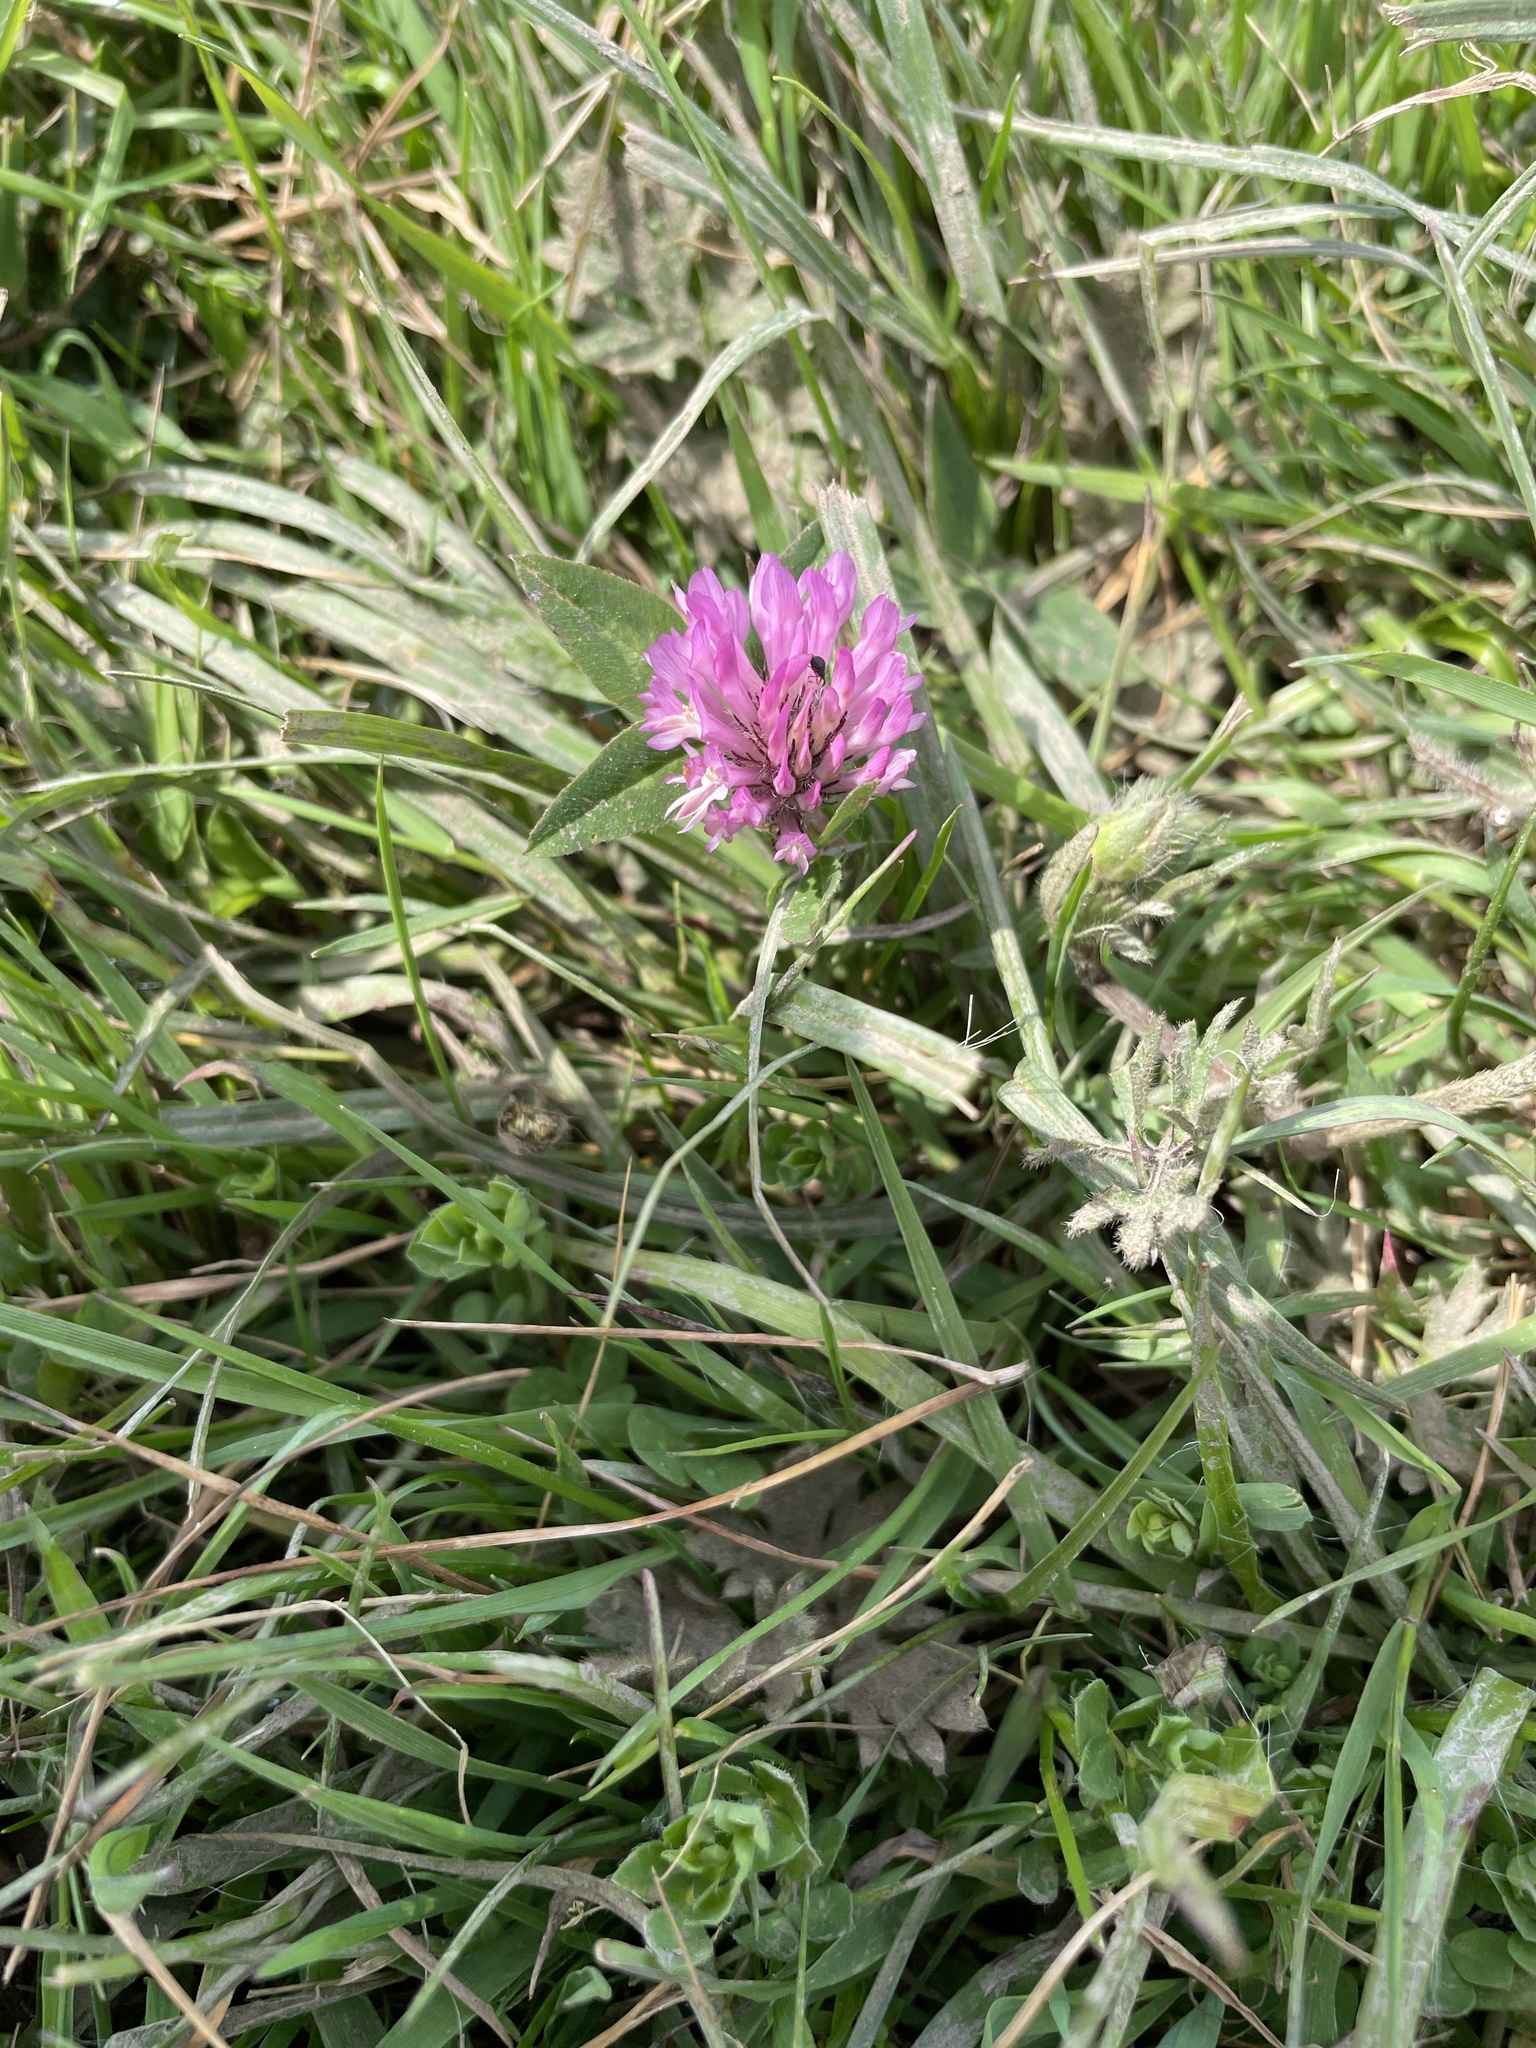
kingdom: Plantae
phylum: Tracheophyta
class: Magnoliopsida
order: Fabales
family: Fabaceae
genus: Trifolium
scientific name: Trifolium pratense
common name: Red clover
